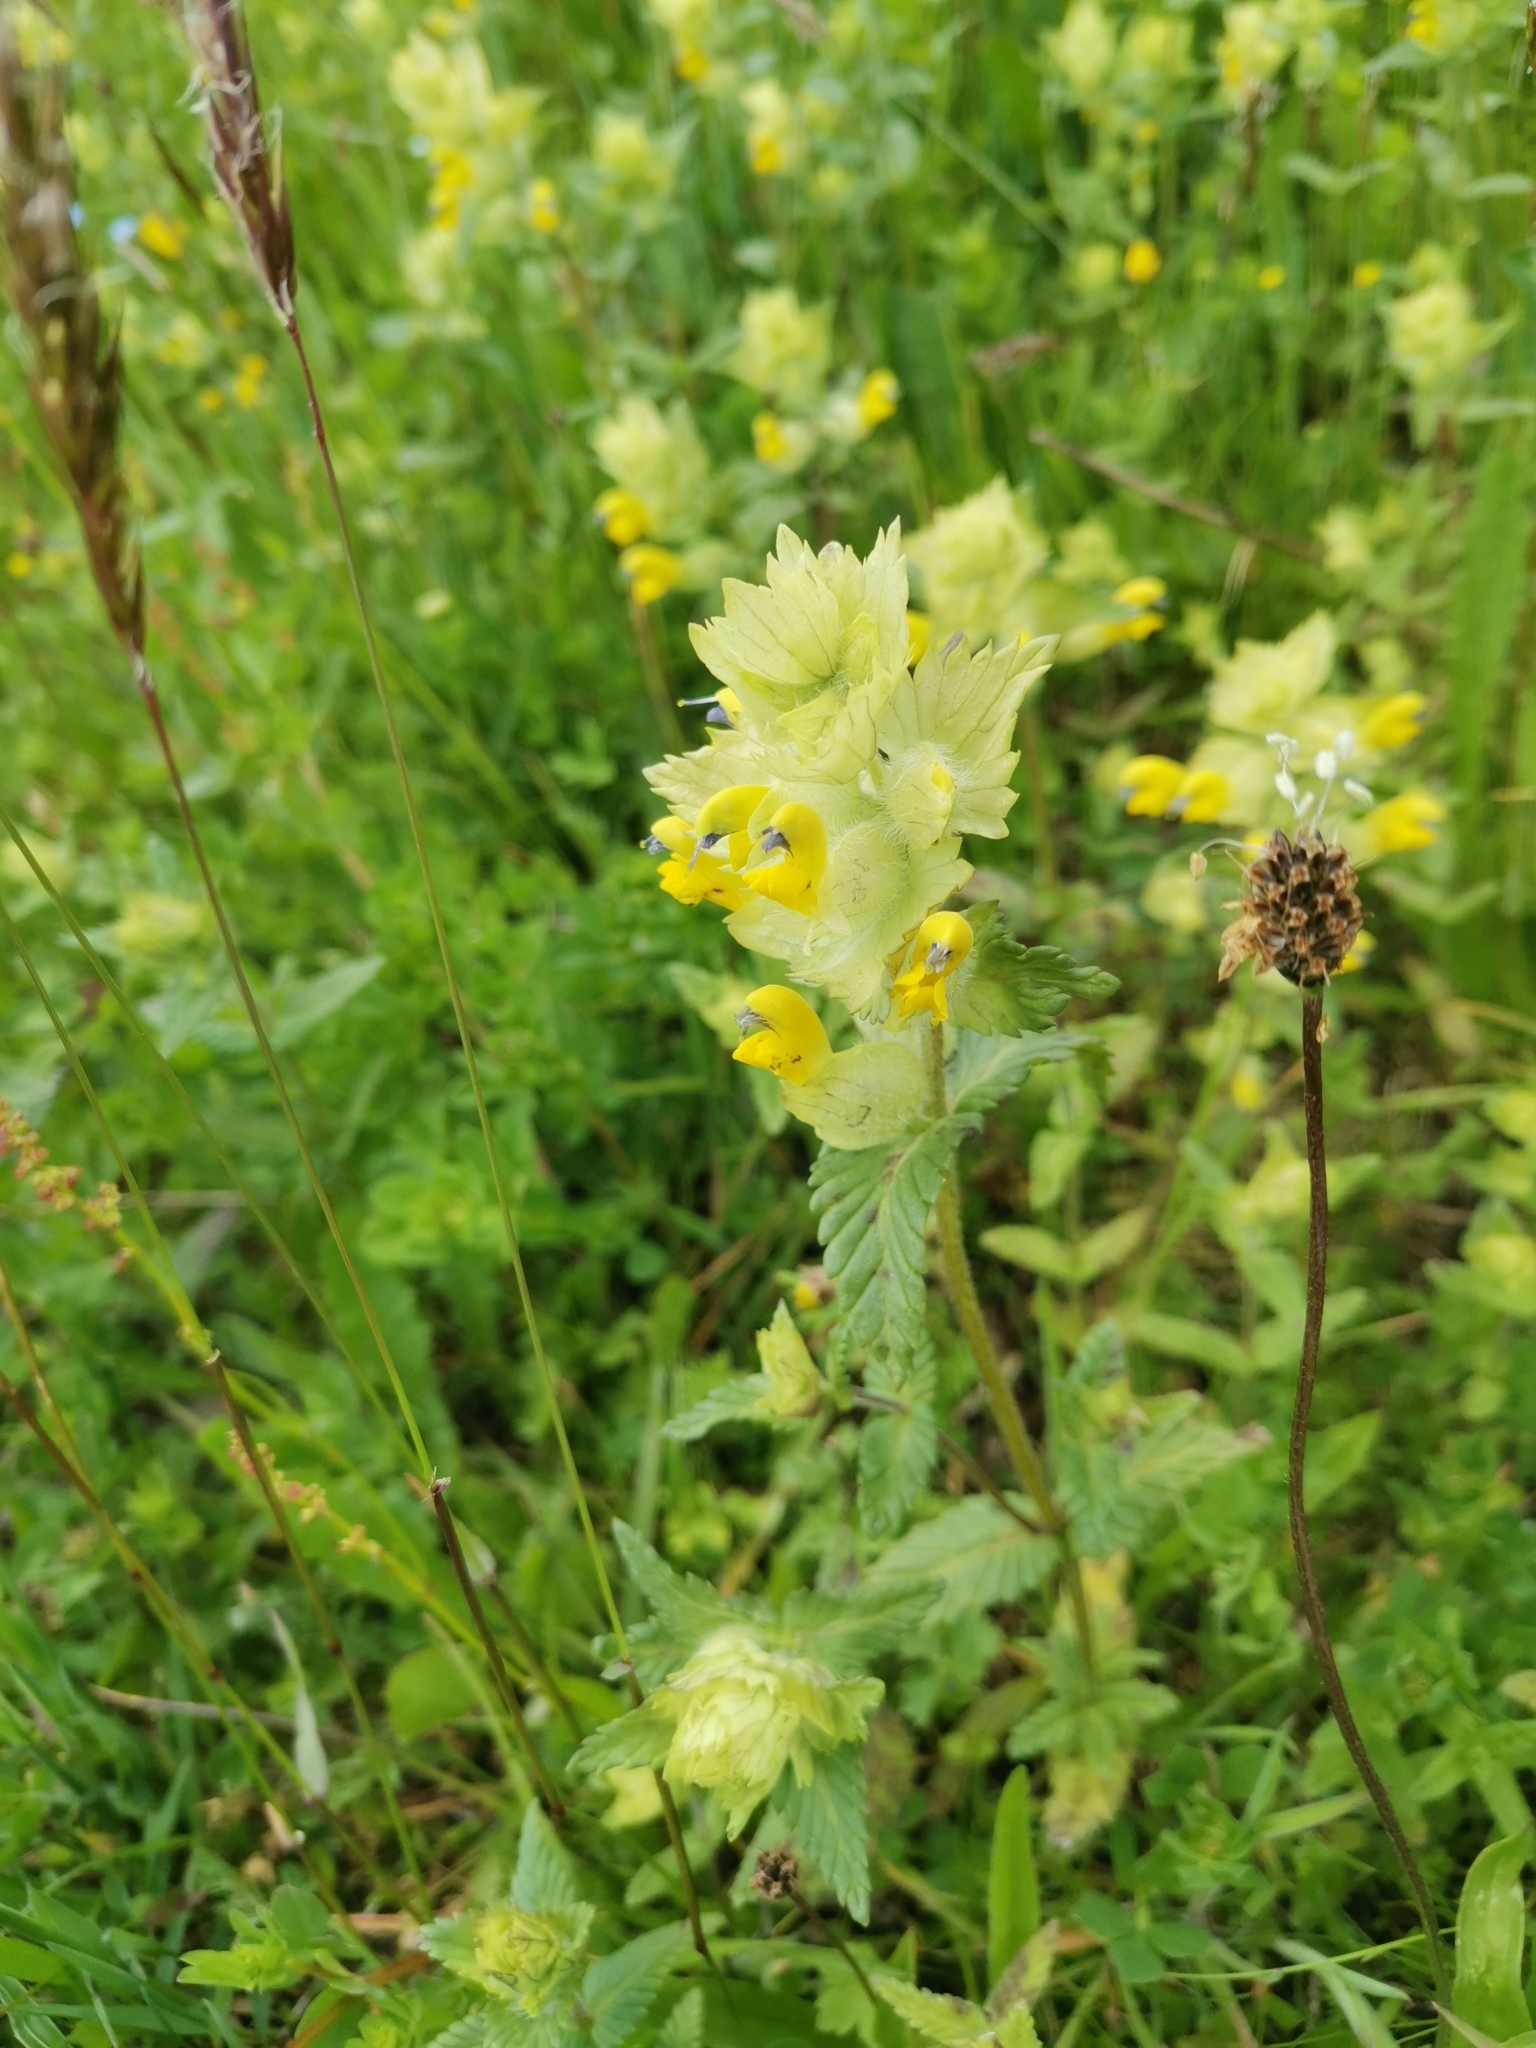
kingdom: Plantae
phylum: Tracheophyta
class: Magnoliopsida
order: Lamiales
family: Orobanchaceae
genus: Rhinanthus
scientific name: Rhinanthus alectorolophus
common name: Greater yellow-rattle
